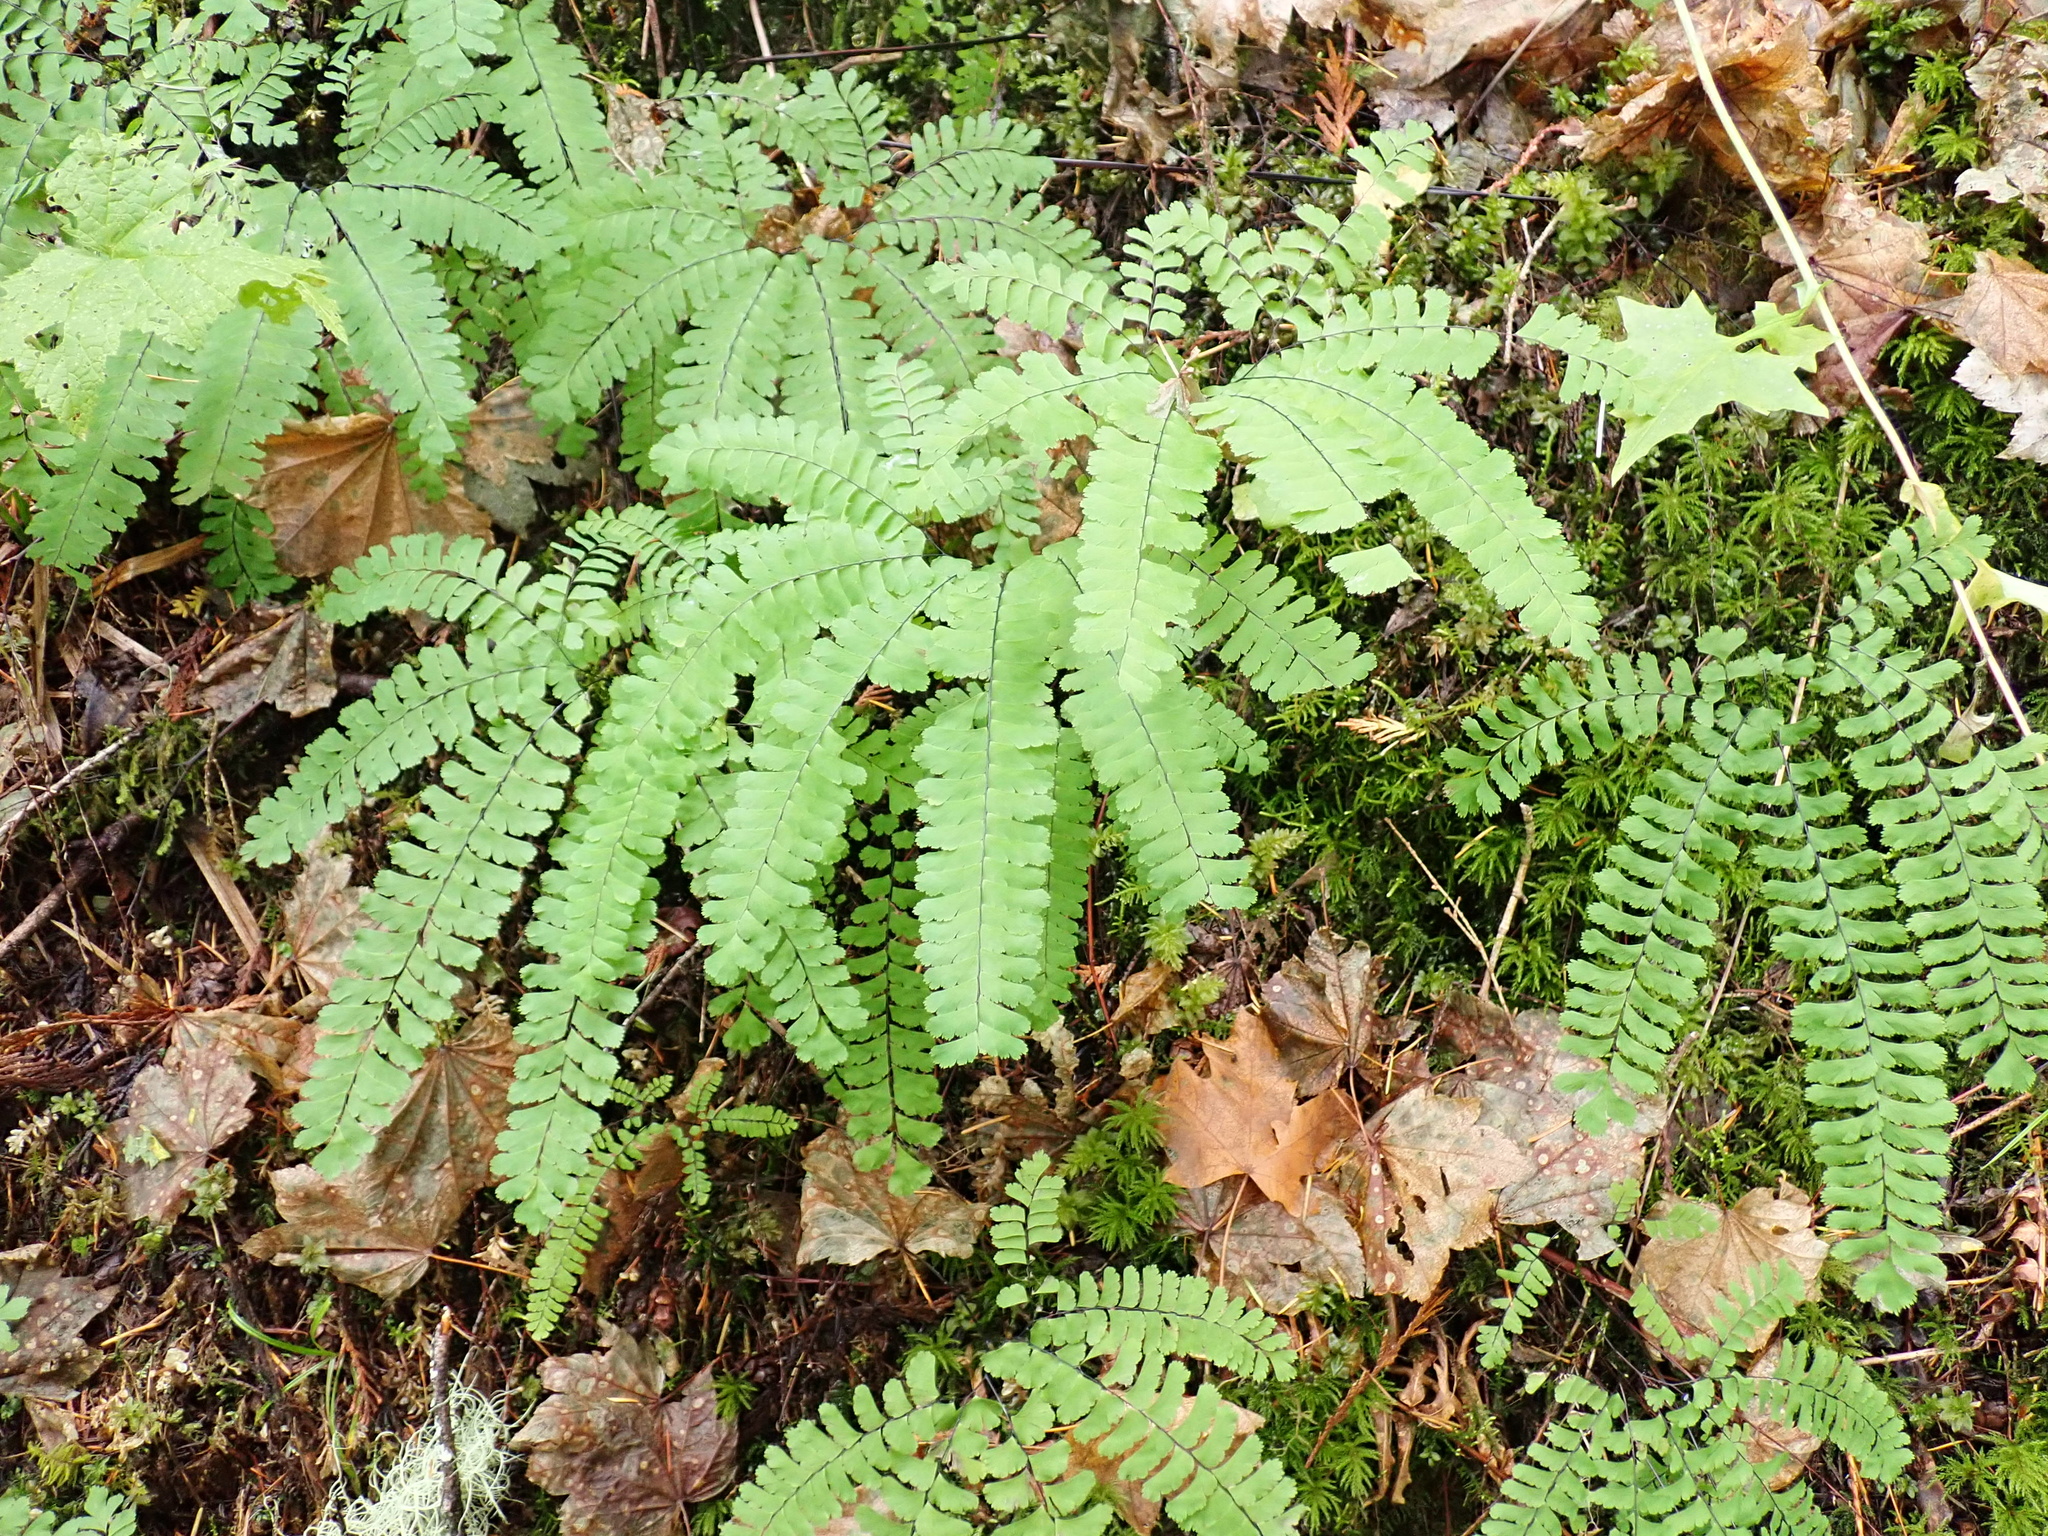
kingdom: Plantae
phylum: Tracheophyta
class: Polypodiopsida
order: Polypodiales
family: Pteridaceae
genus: Adiantum
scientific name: Adiantum aleuticum
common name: Aleutian maidenhair fern
